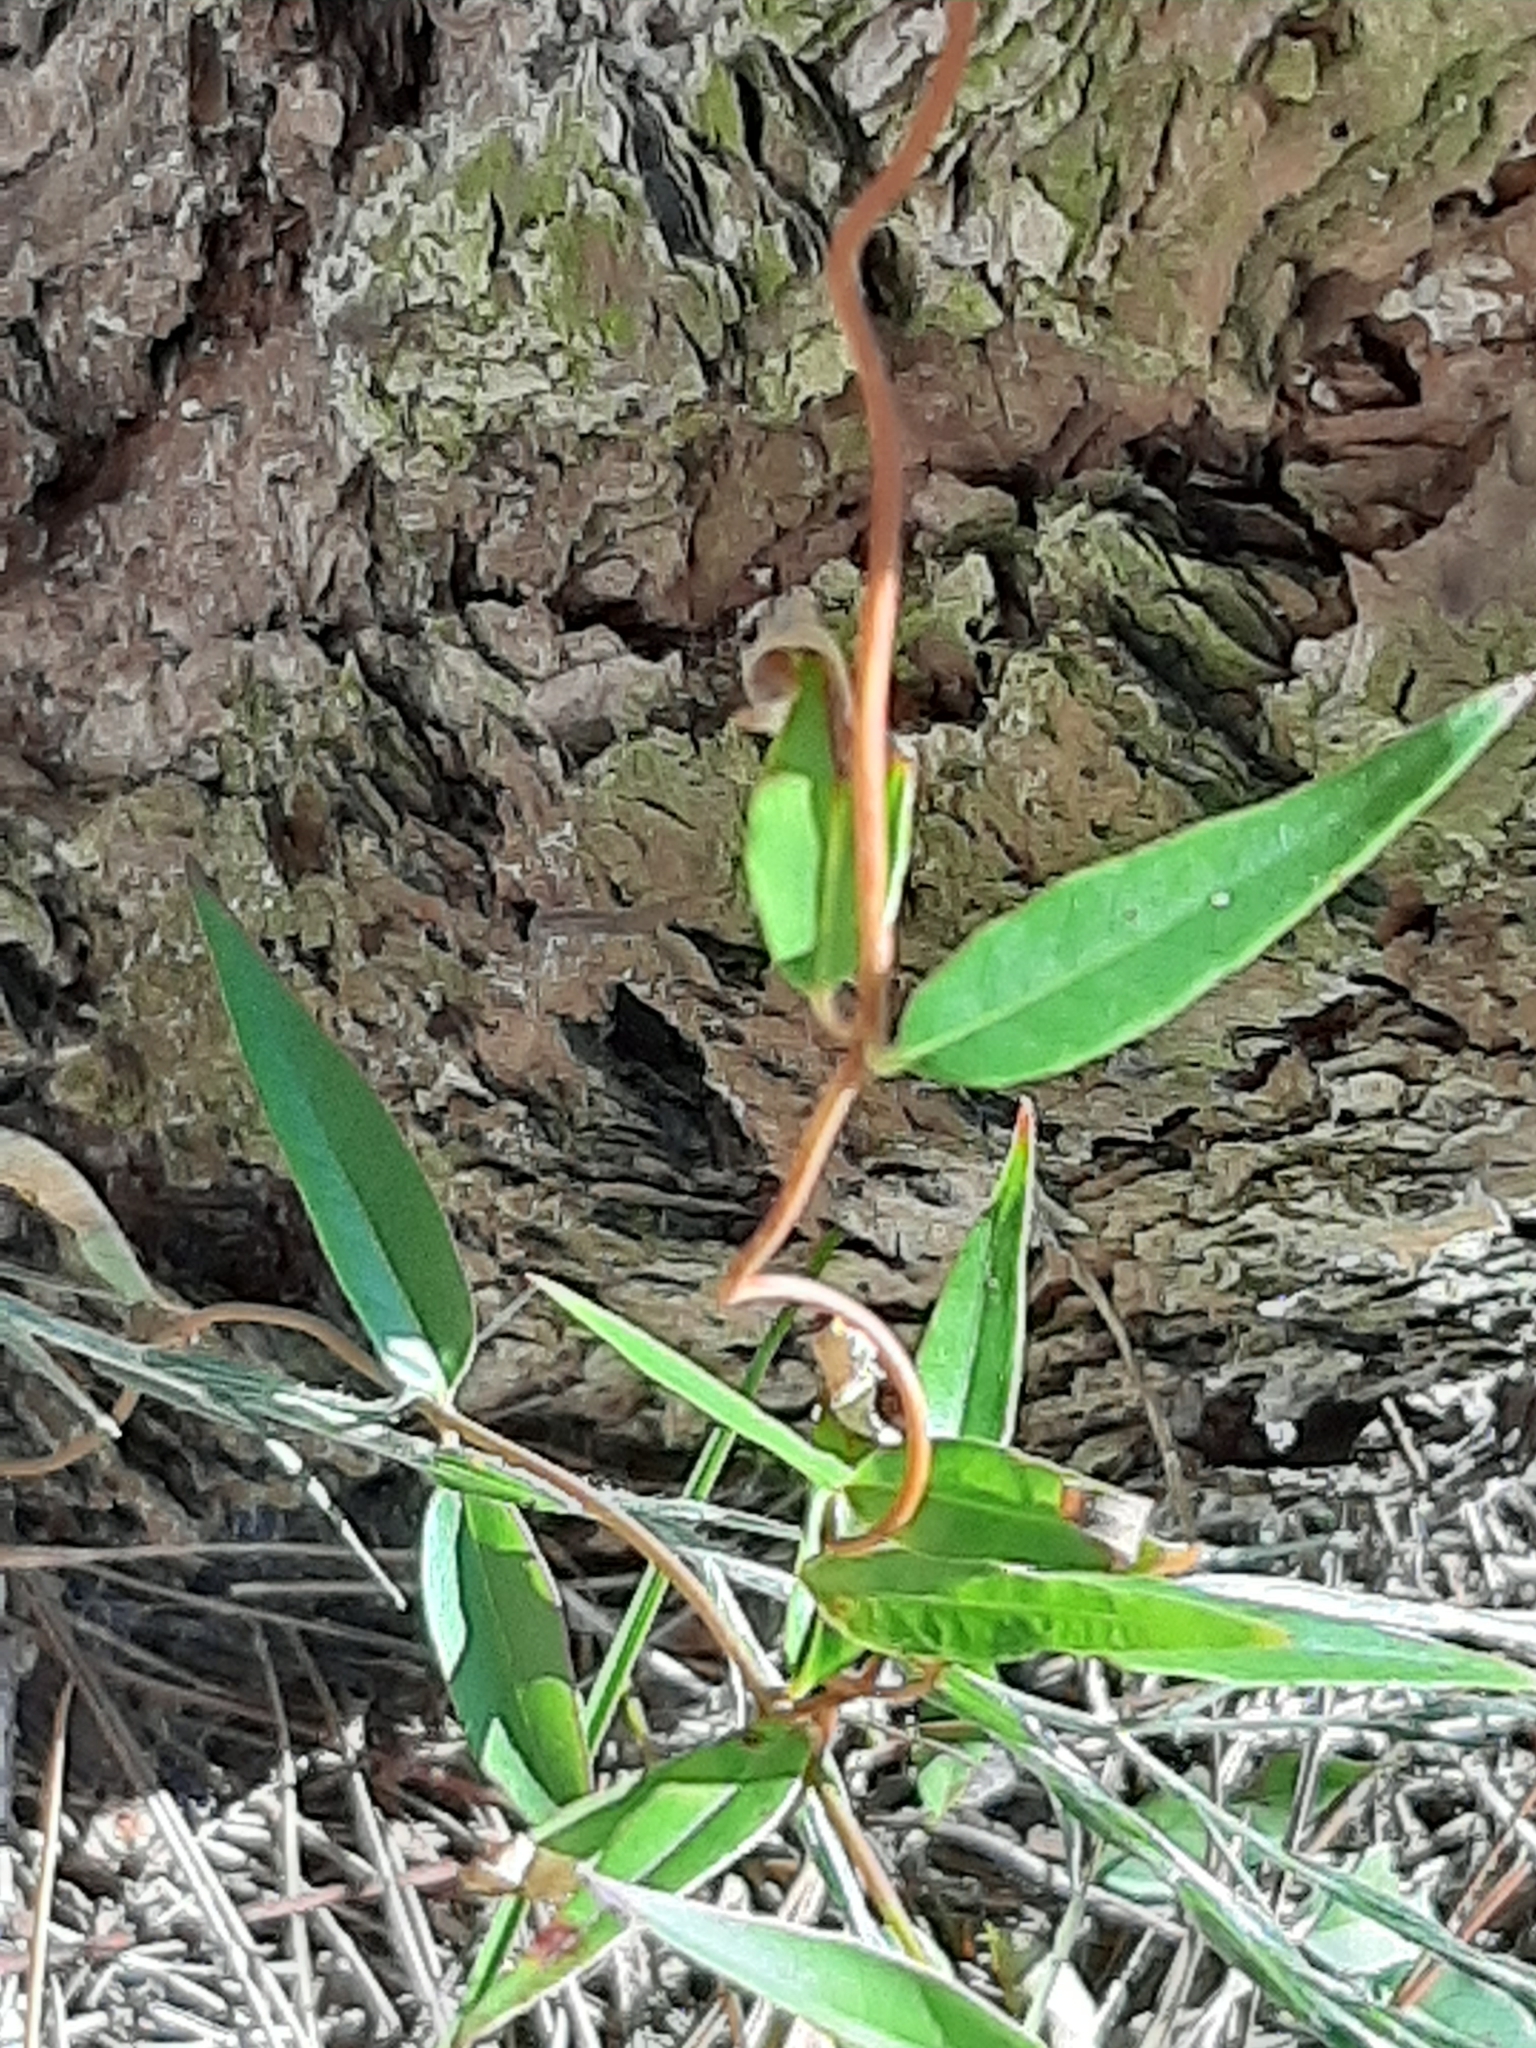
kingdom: Plantae
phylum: Tracheophyta
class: Magnoliopsida
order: Gentianales
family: Gelsemiaceae
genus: Gelsemium
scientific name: Gelsemium sempervirens
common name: Carolina-jasmine
